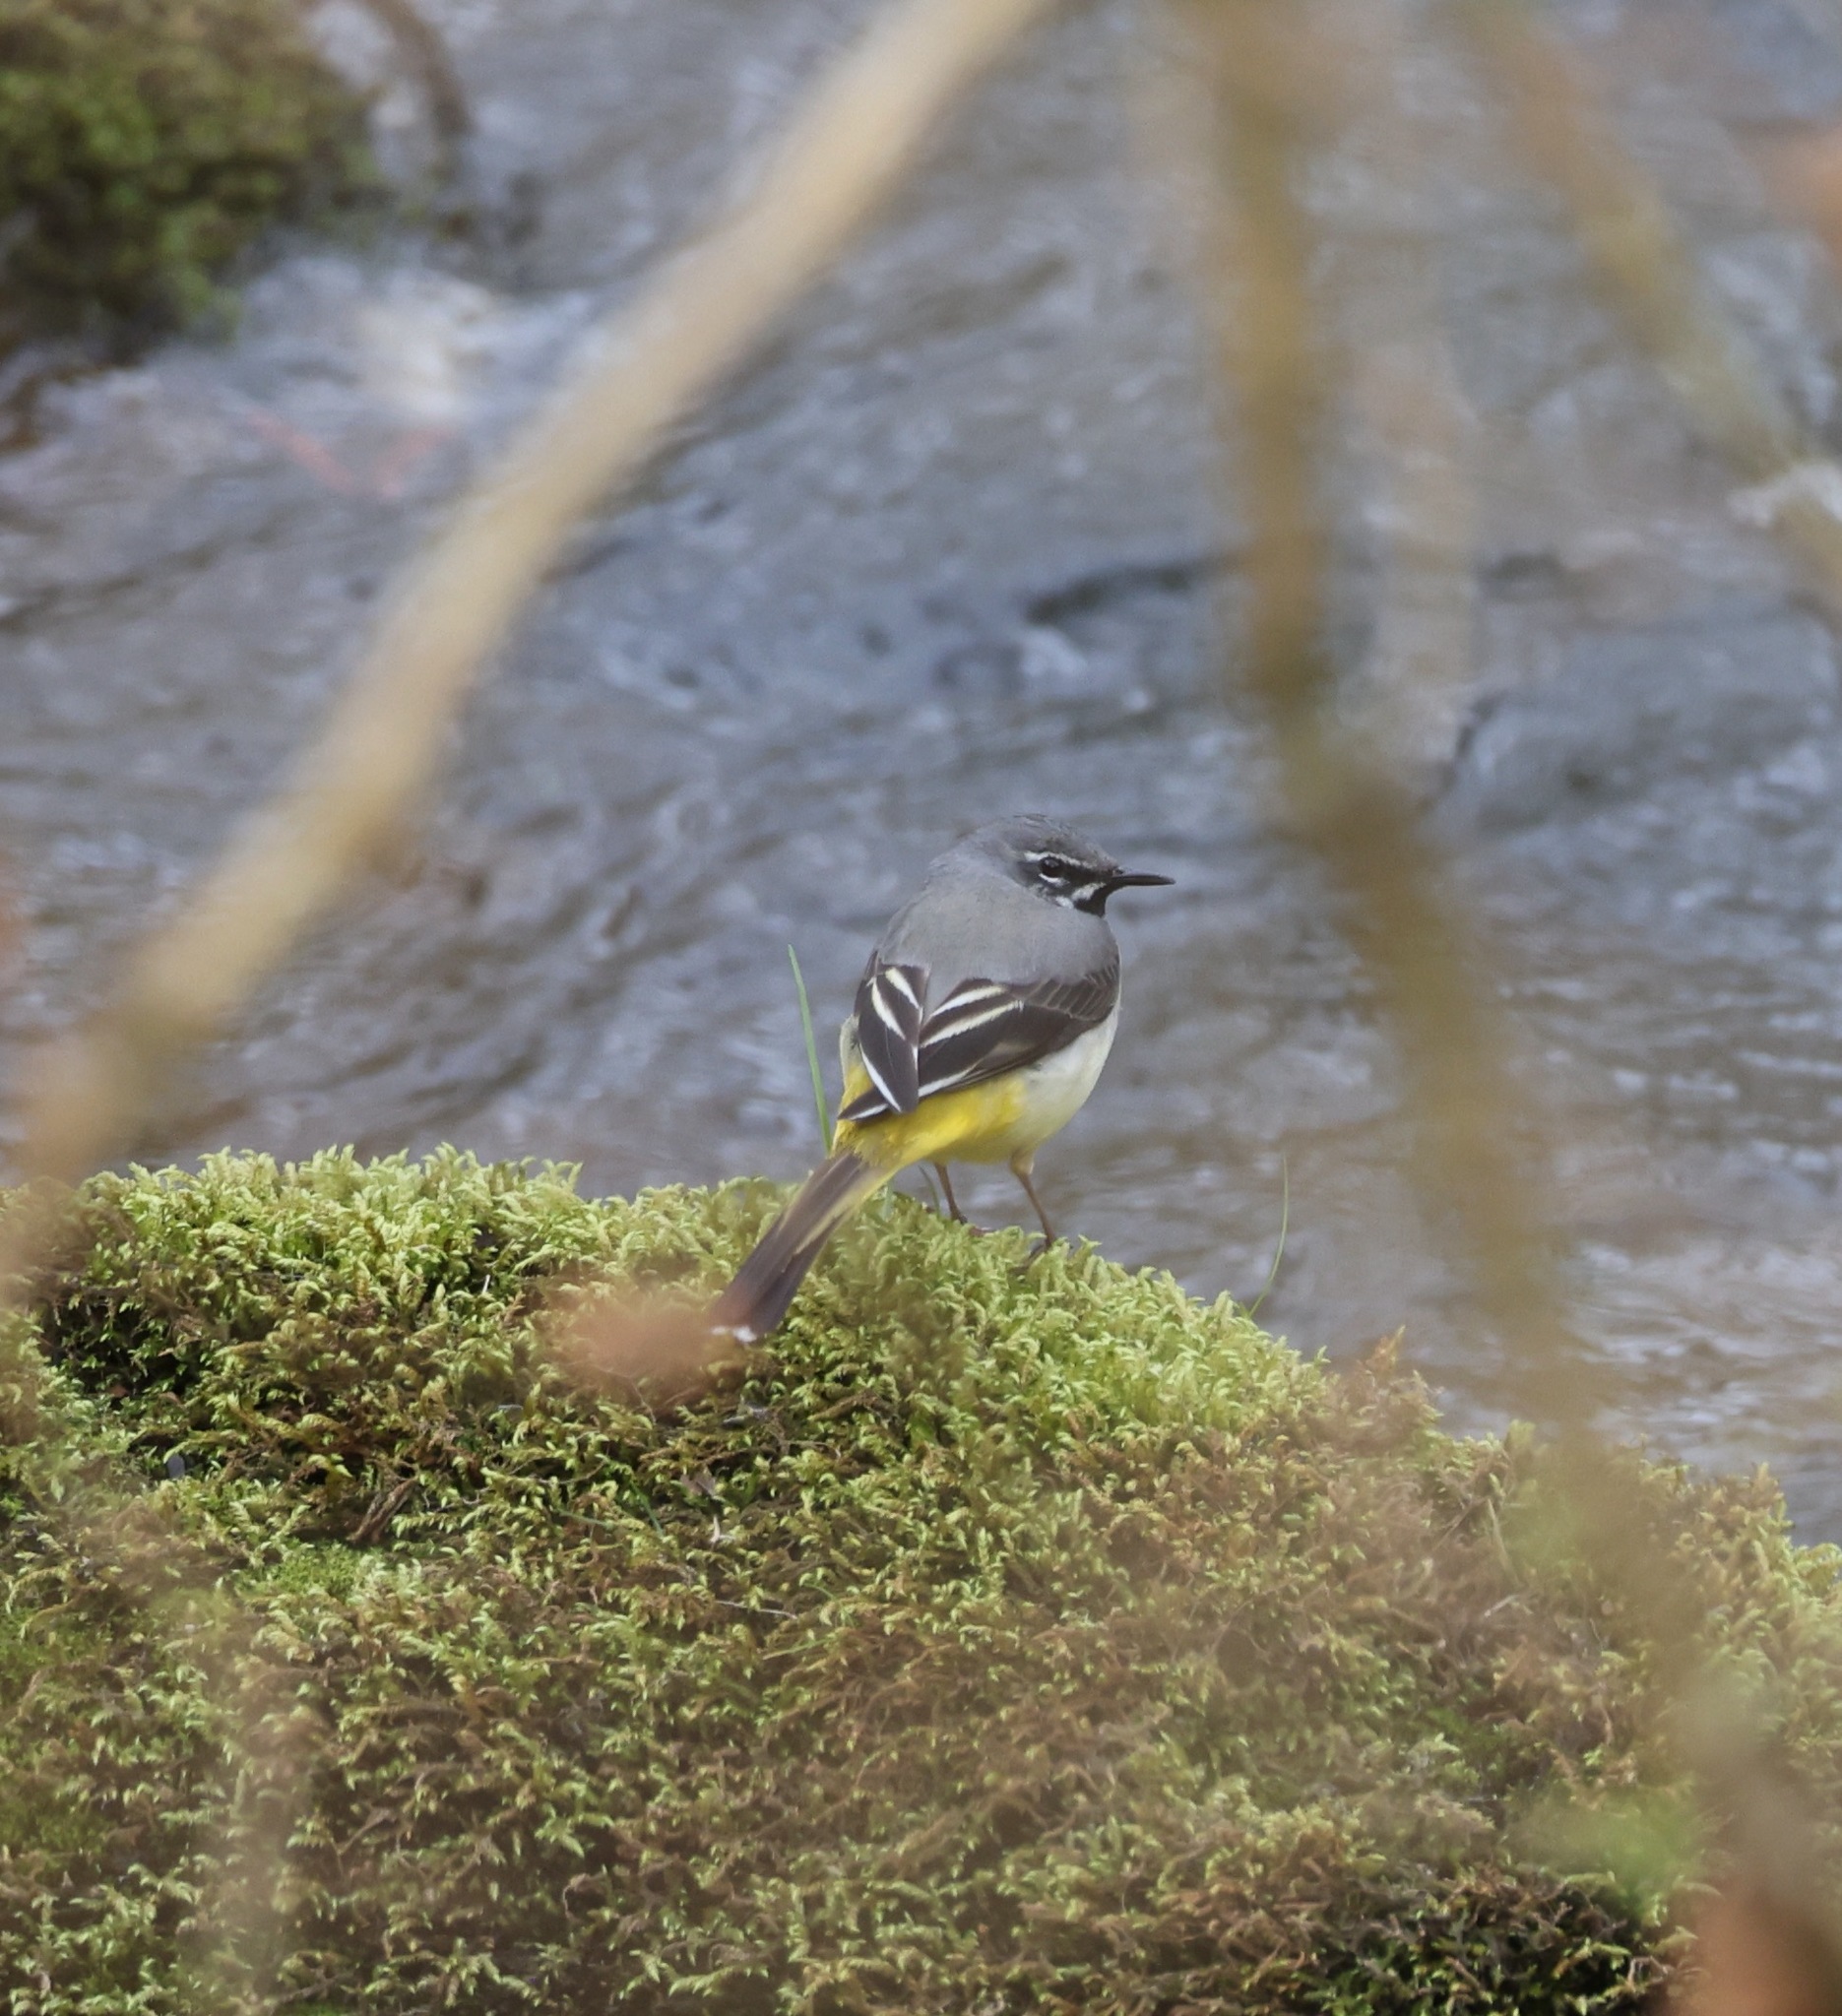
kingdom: Animalia
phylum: Chordata
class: Aves
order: Passeriformes
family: Motacillidae
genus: Motacilla
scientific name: Motacilla cinerea
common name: Grey wagtail
